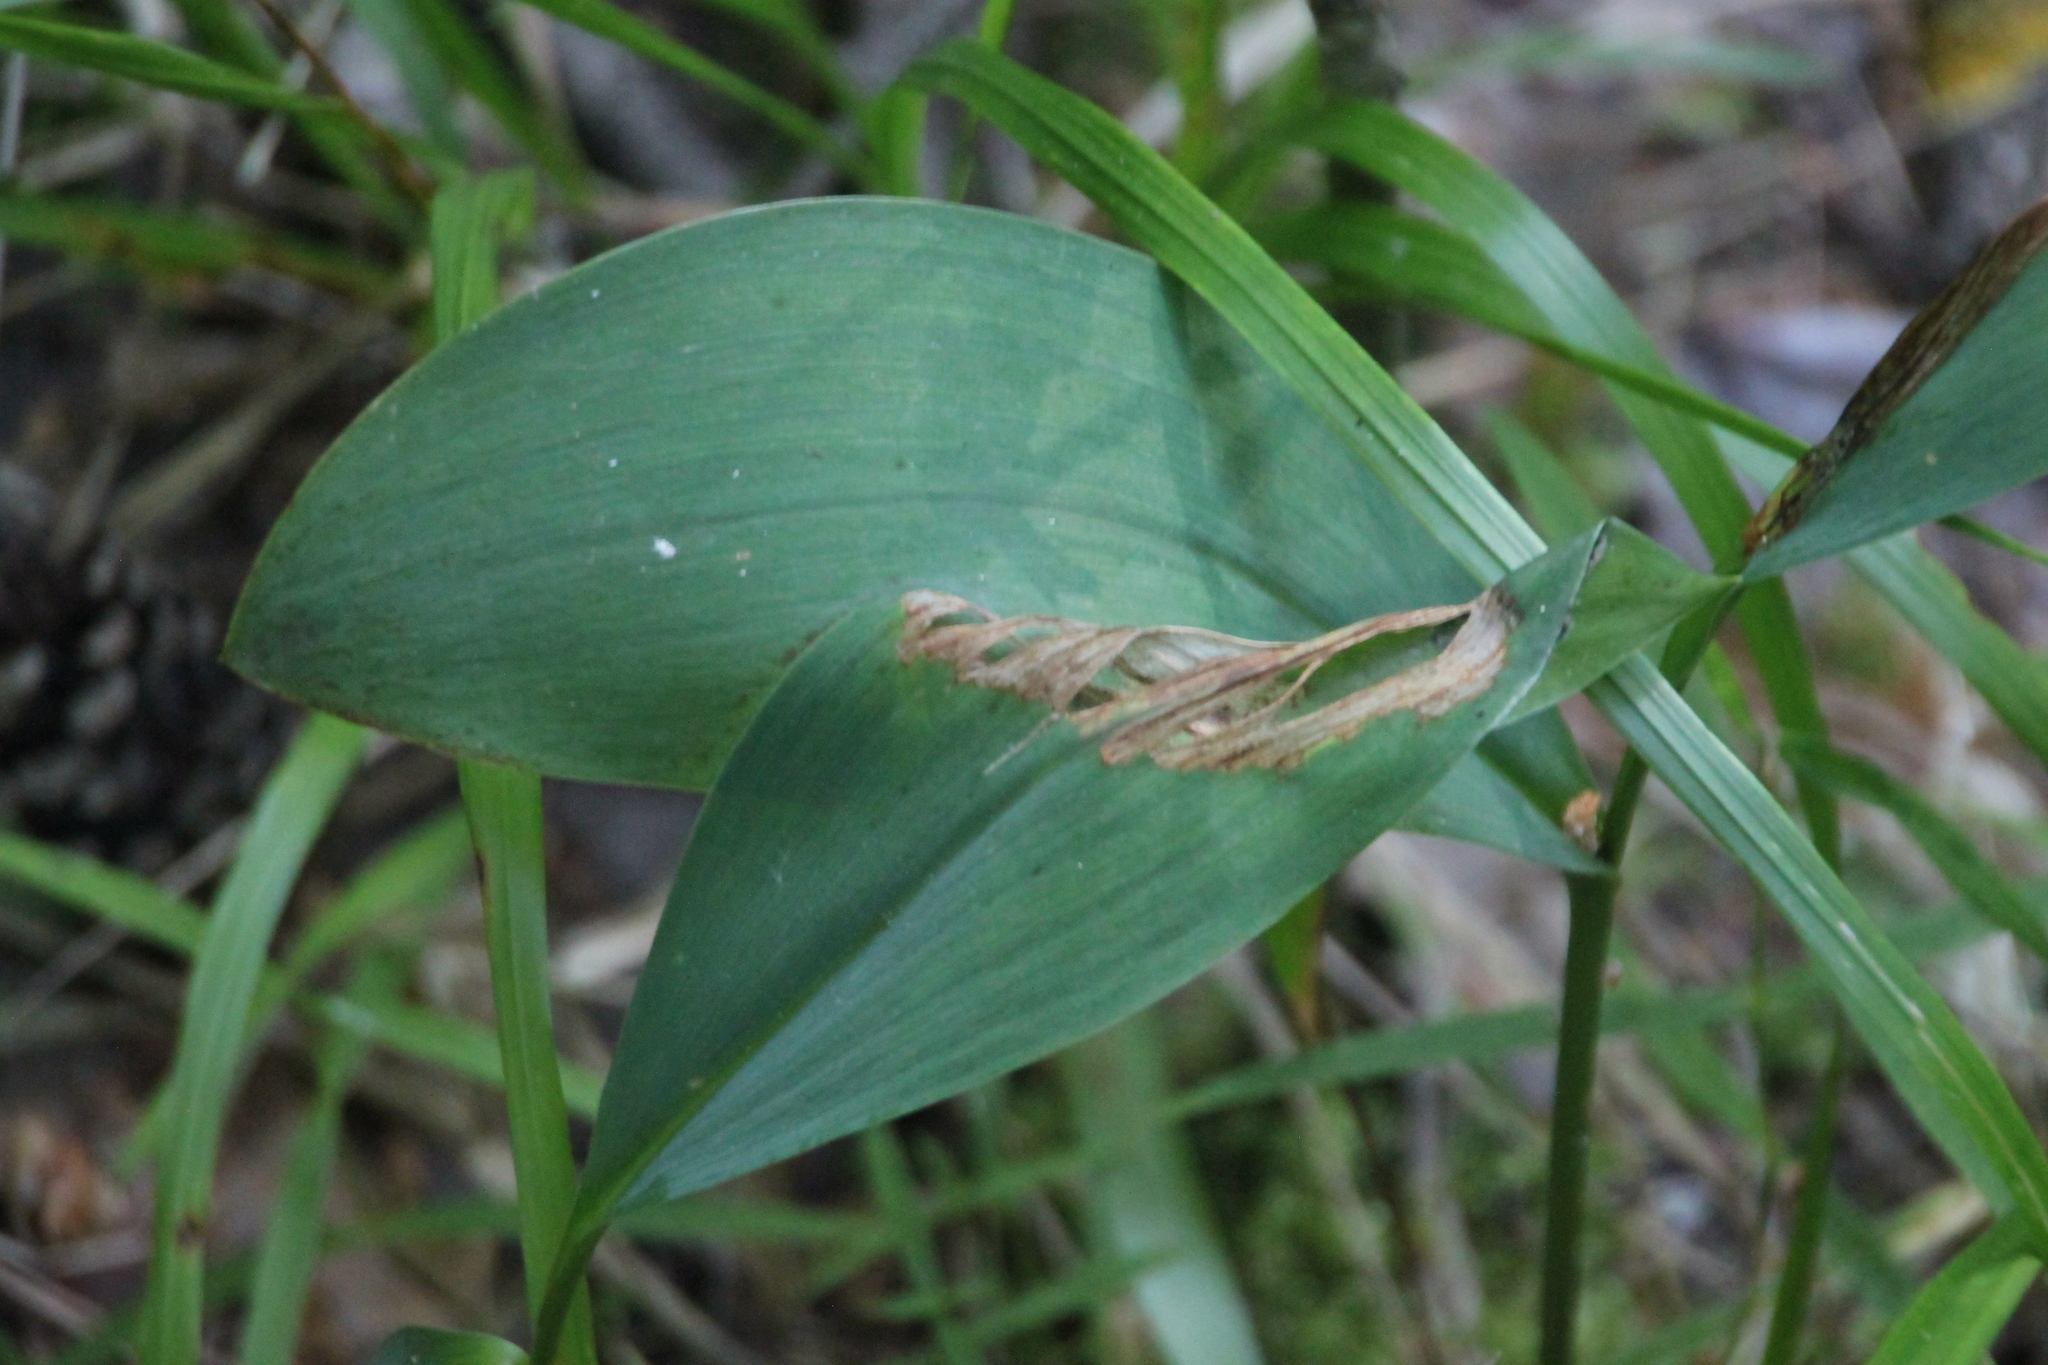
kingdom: Plantae
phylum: Tracheophyta
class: Liliopsida
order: Asparagales
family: Asparagaceae
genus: Convallaria
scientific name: Convallaria majalis
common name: Lily-of-the-valley
